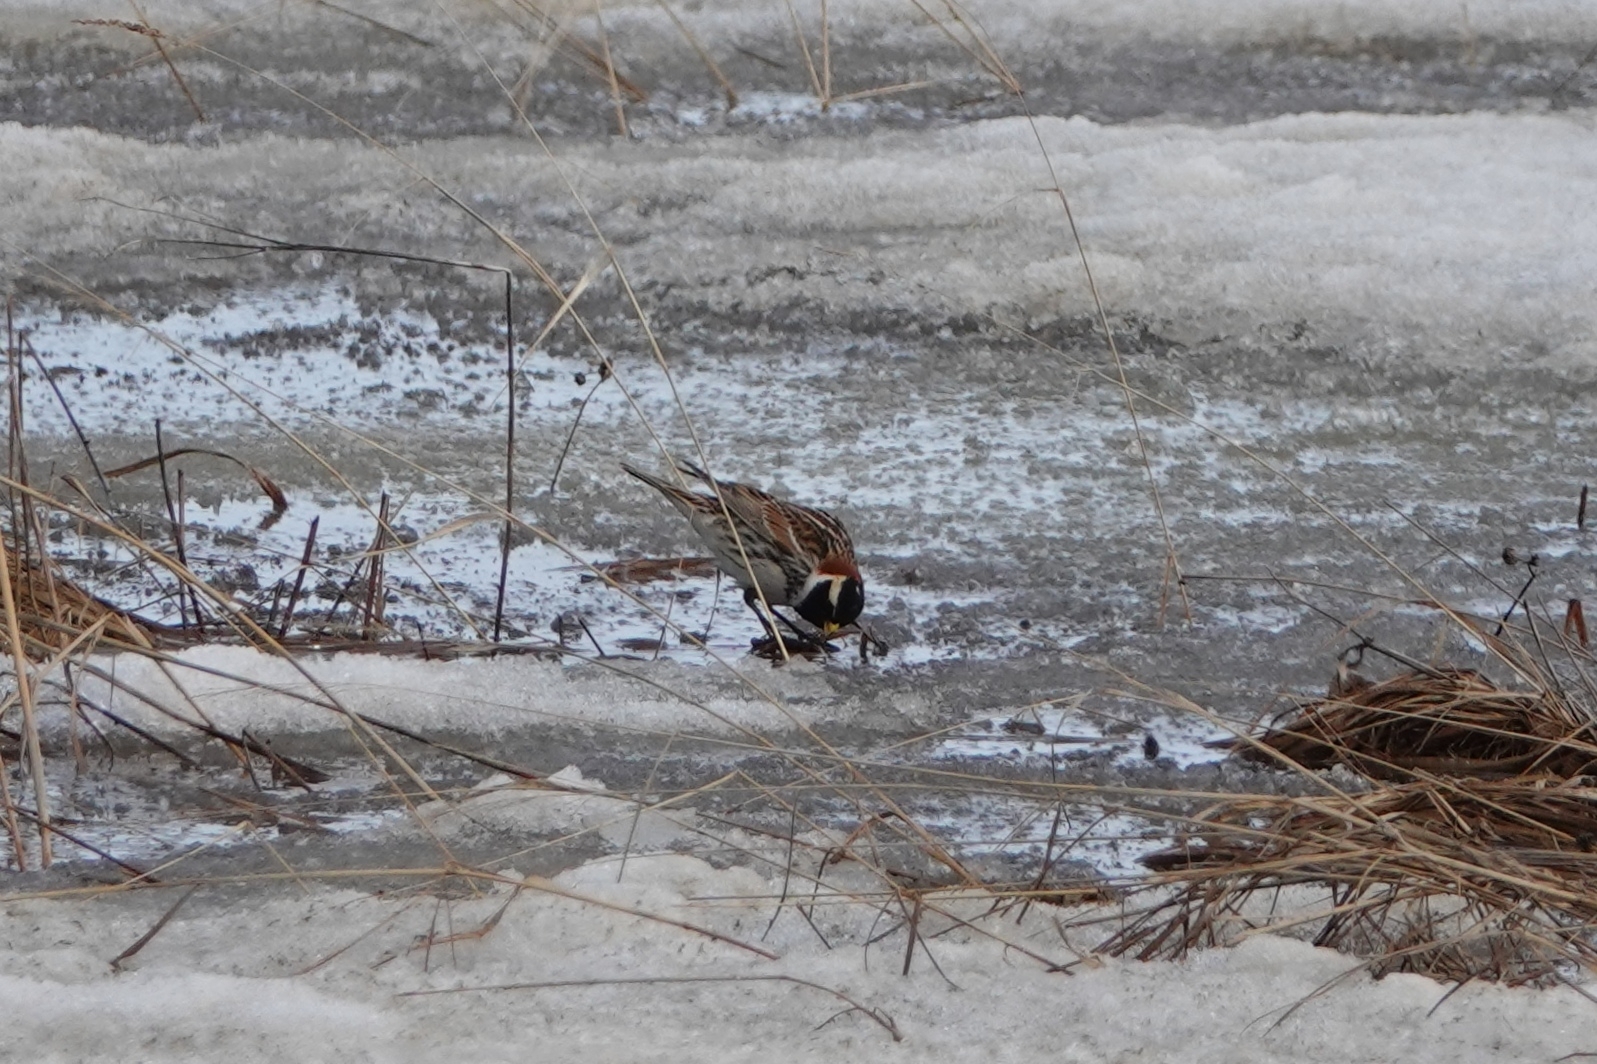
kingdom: Animalia
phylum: Chordata
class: Aves
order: Passeriformes
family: Calcariidae
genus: Calcarius
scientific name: Calcarius lapponicus
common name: Lapland longspur
